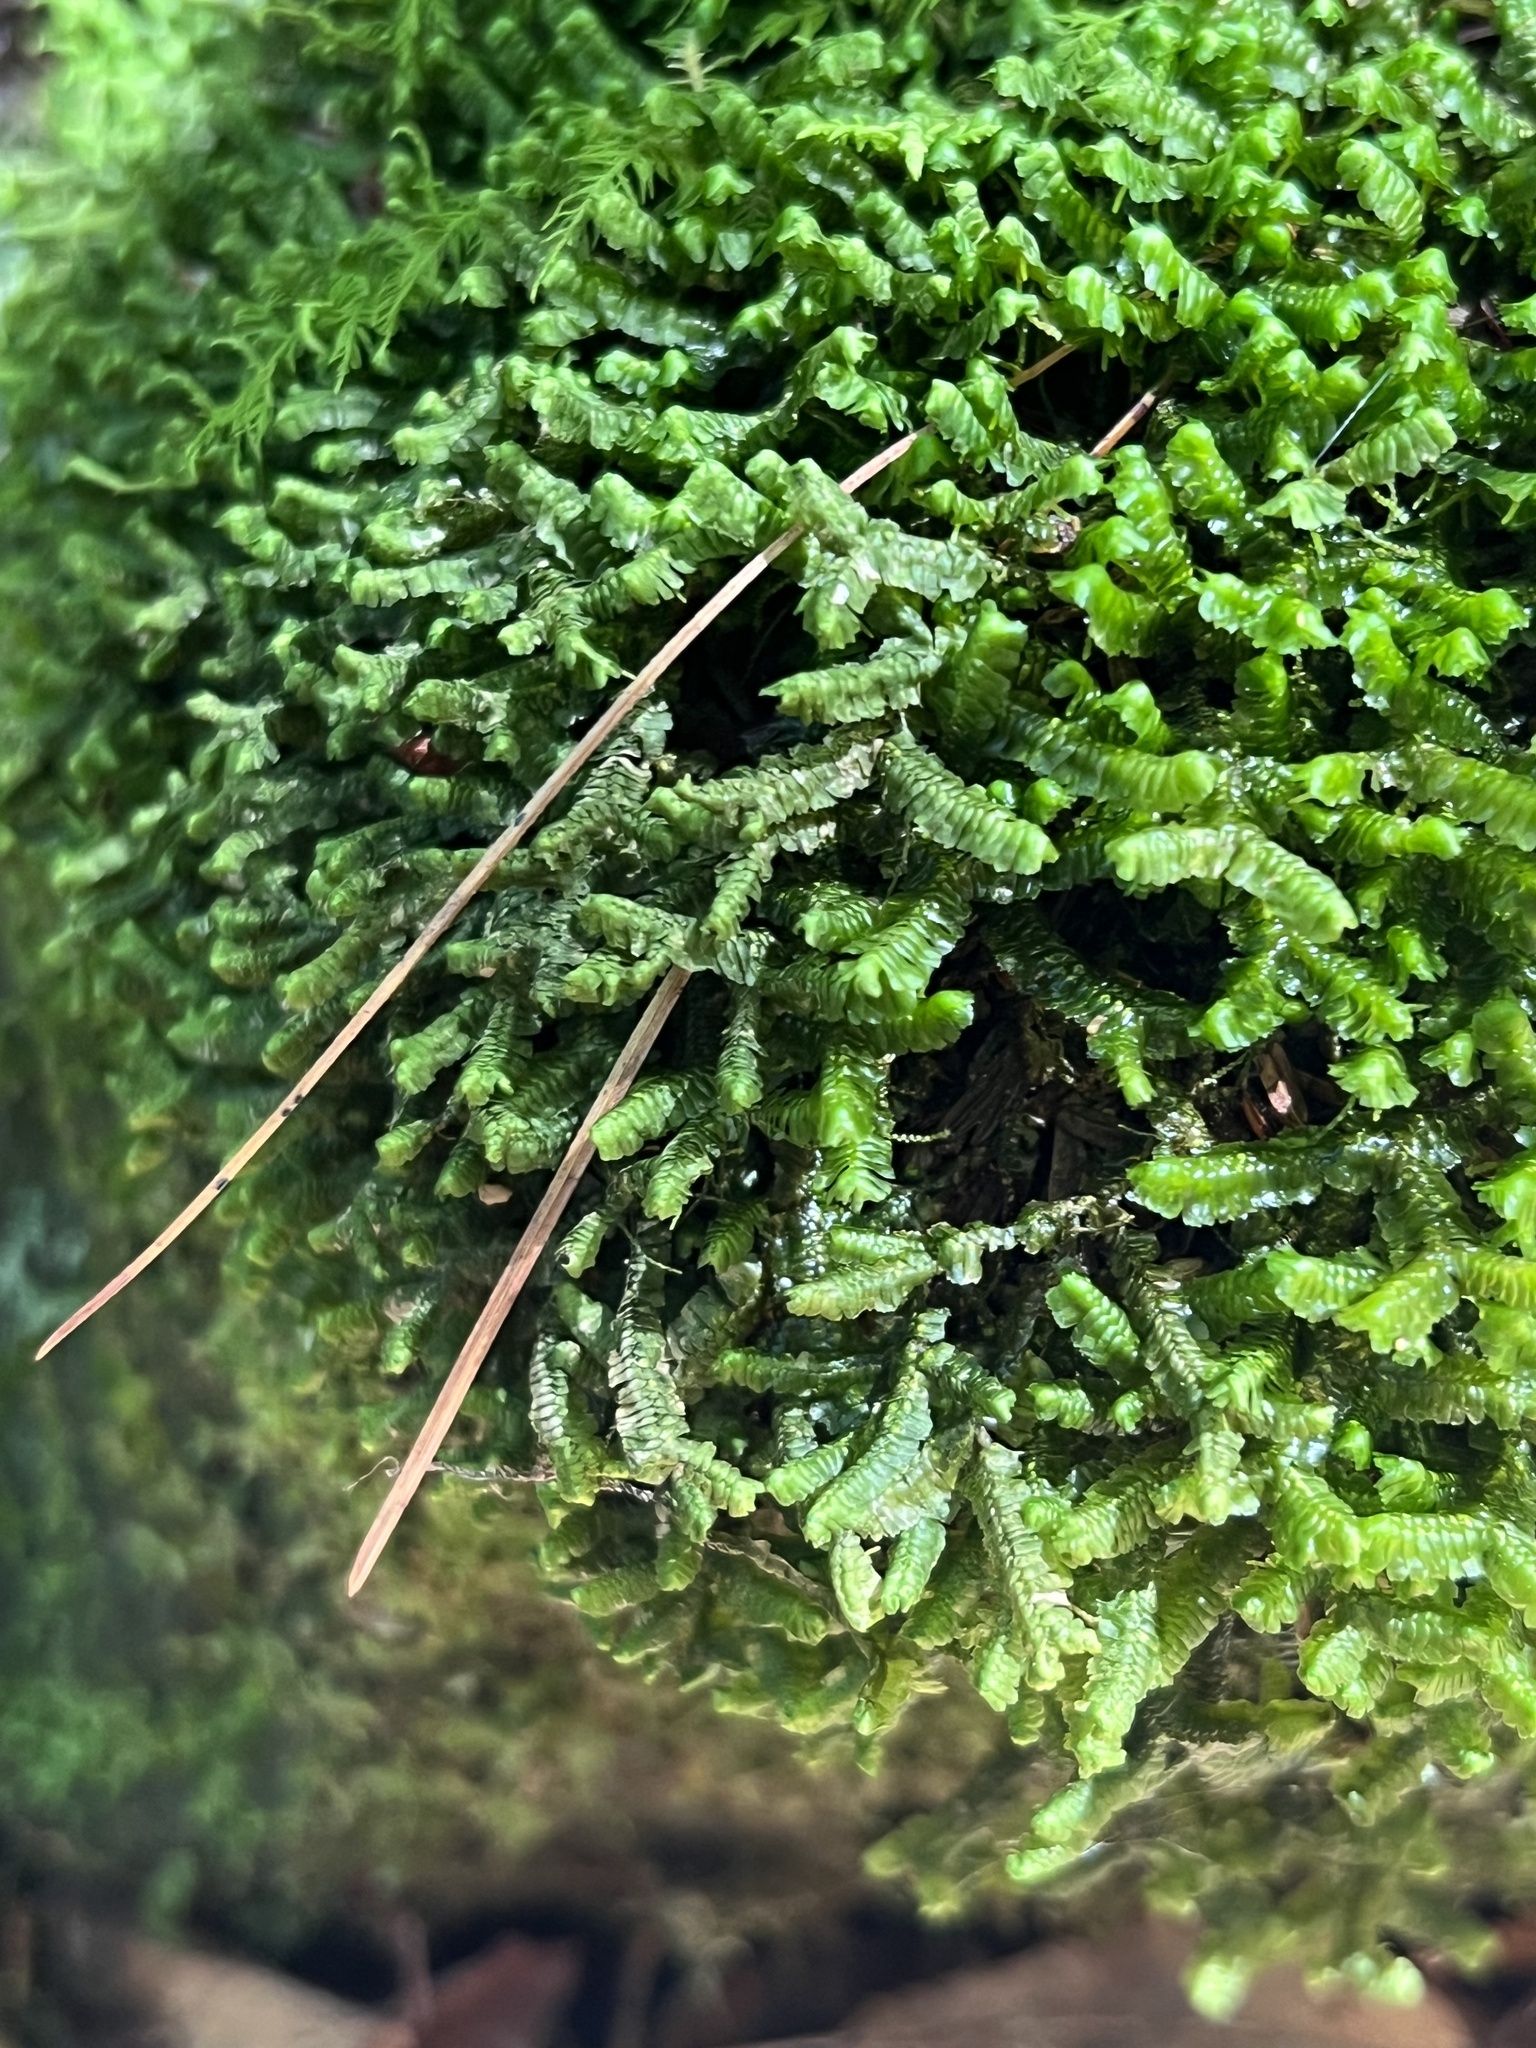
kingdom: Plantae
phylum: Marchantiophyta
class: Jungermanniopsida
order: Jungermanniales
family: Lepidoziaceae
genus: Bazzania
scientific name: Bazzania trilobata
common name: Three-lobed whipwort
